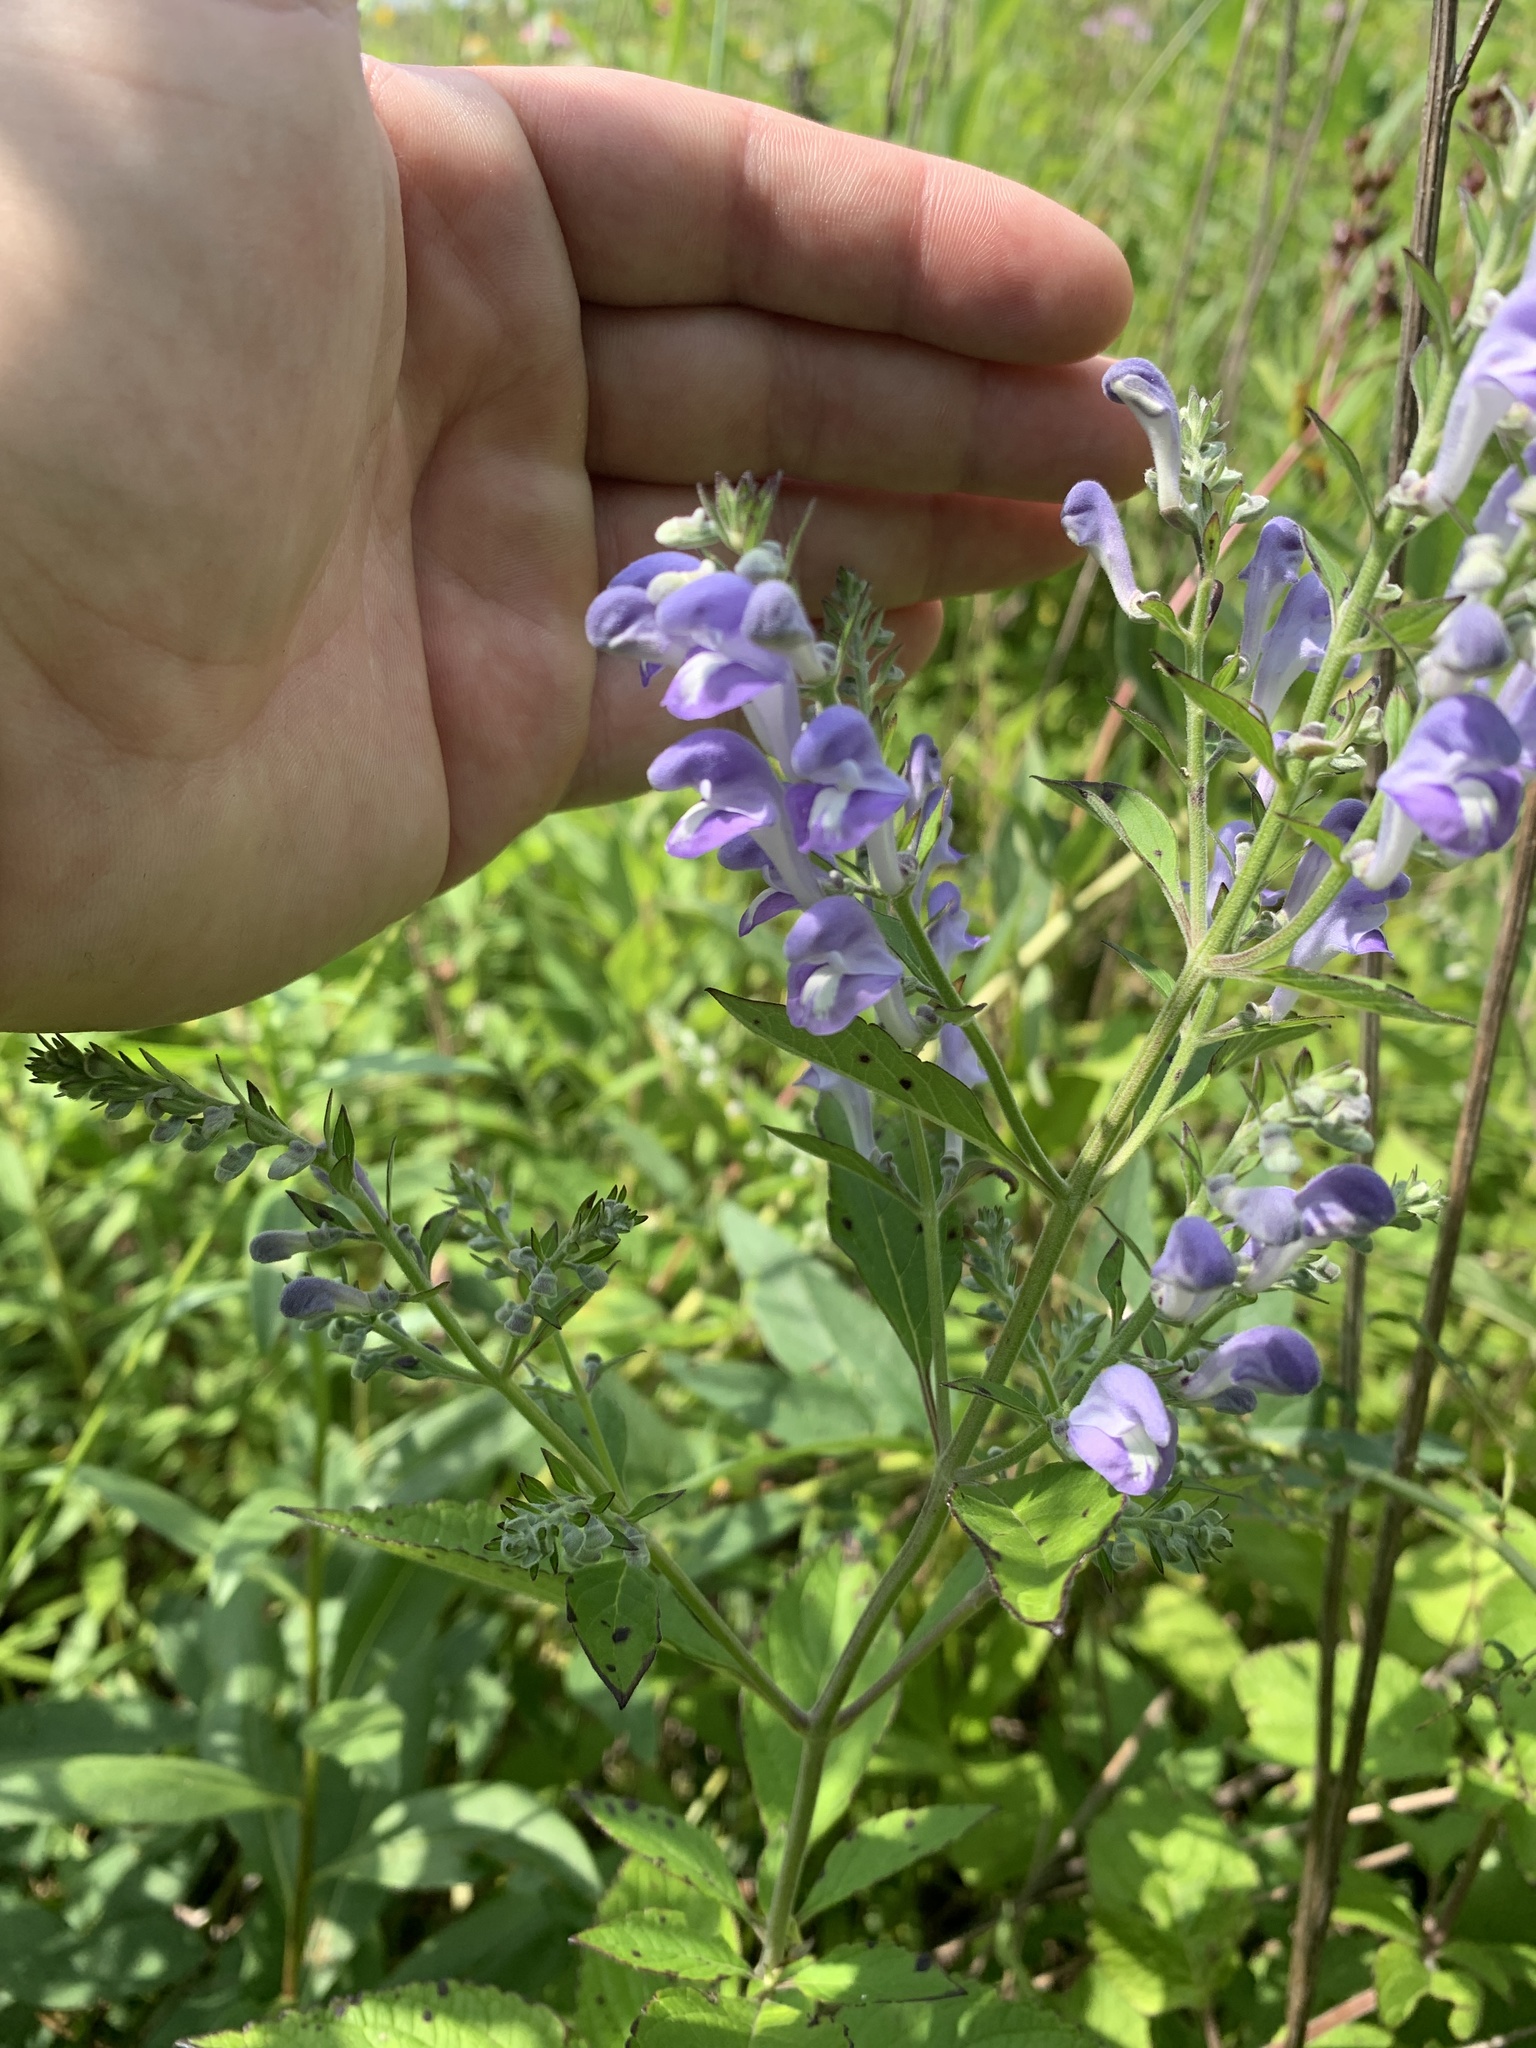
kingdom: Plantae
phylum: Tracheophyta
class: Magnoliopsida
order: Lamiales
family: Lamiaceae
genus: Scutellaria
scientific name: Scutellaria incana
